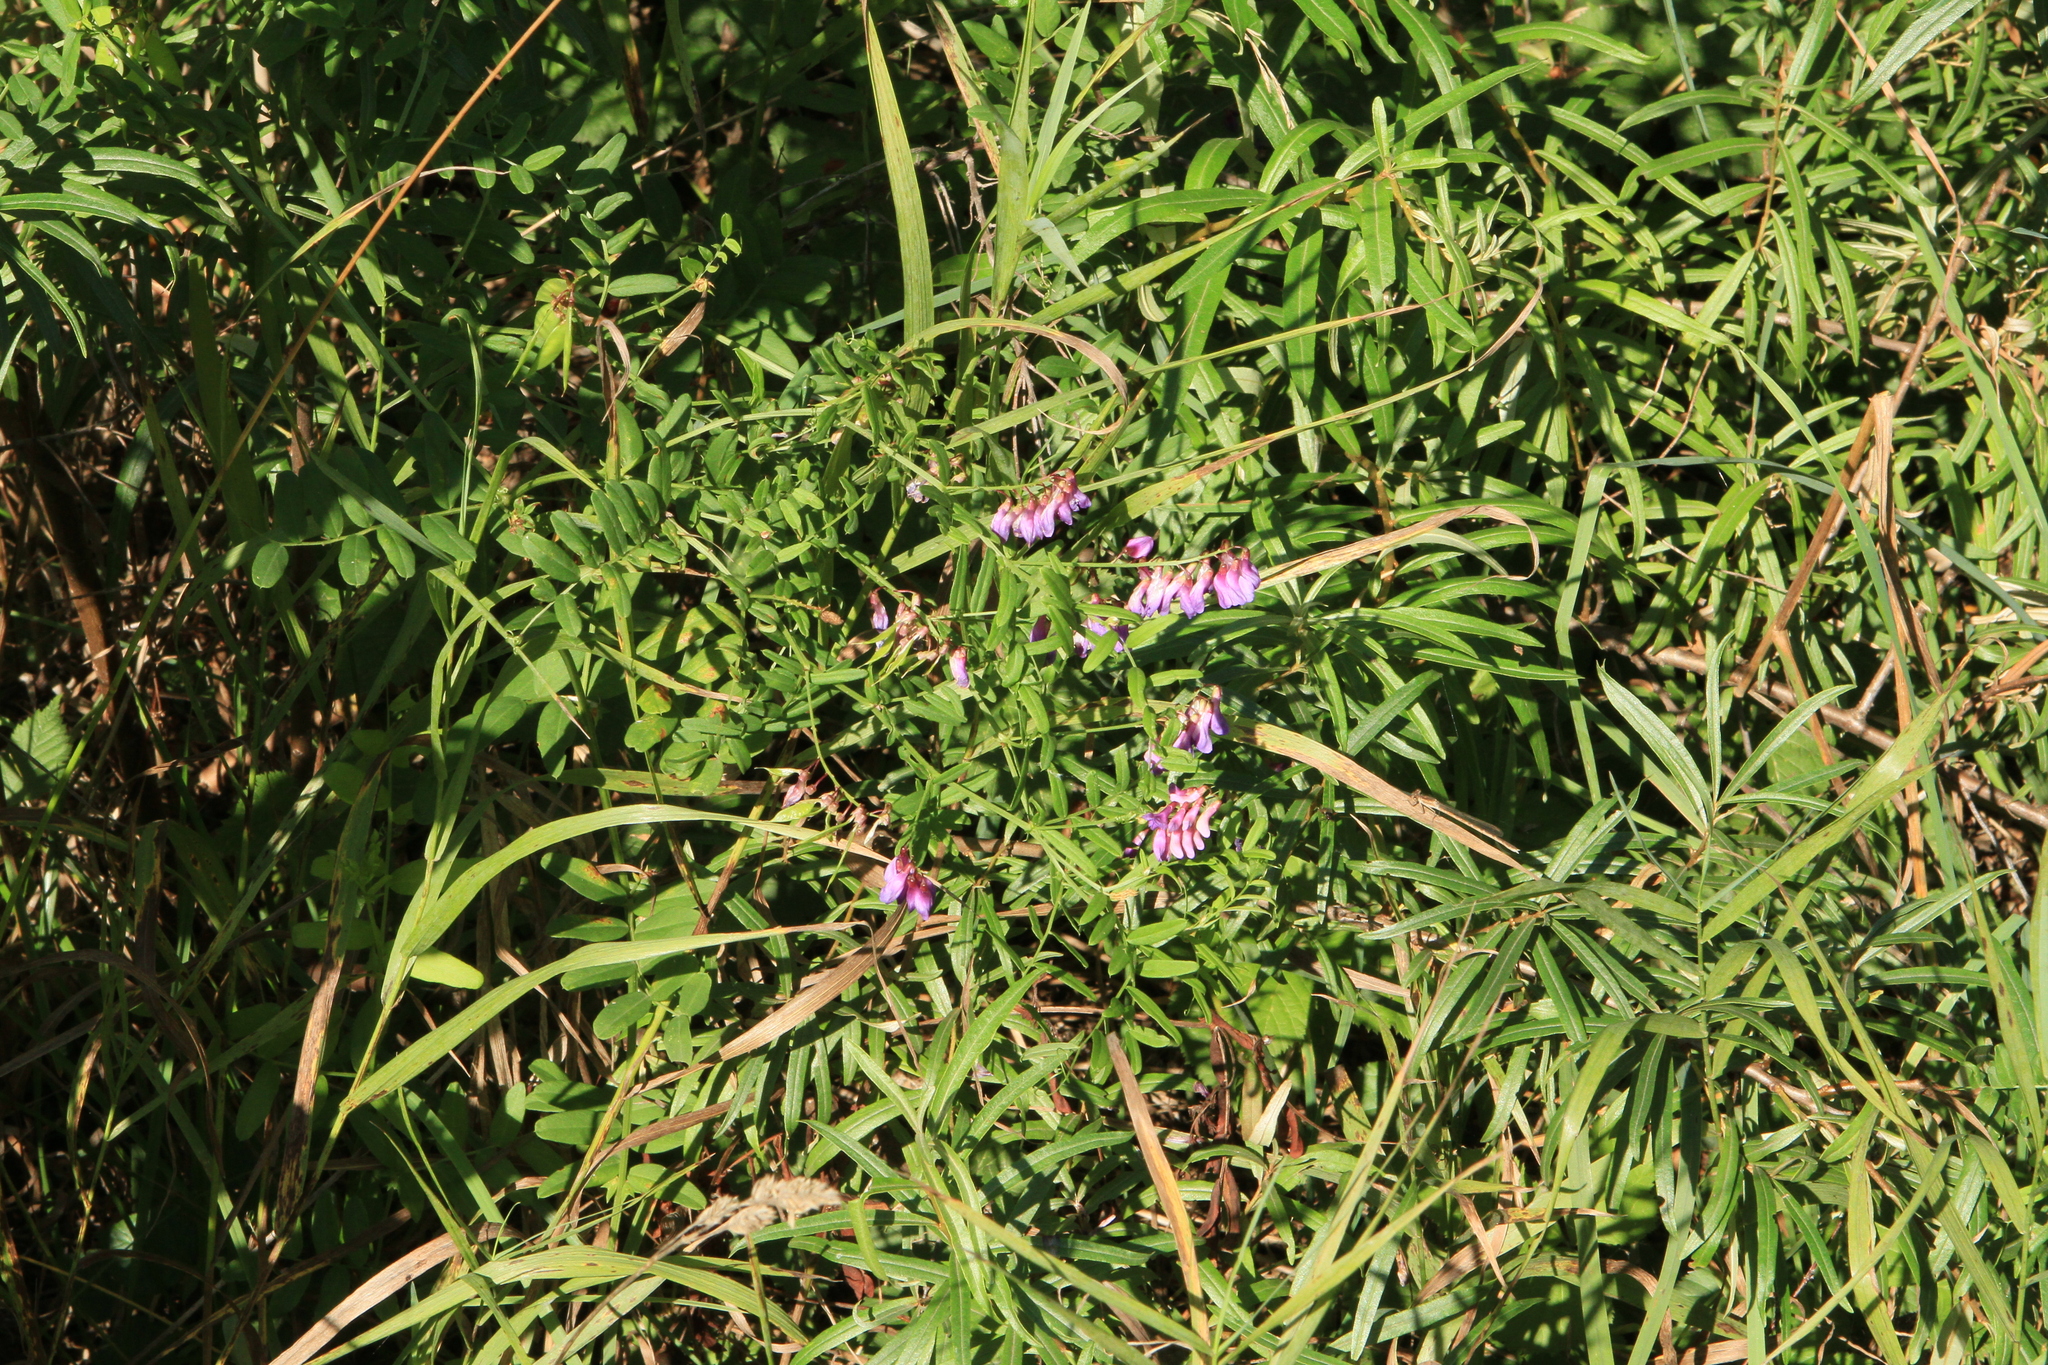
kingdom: Plantae
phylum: Tracheophyta
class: Magnoliopsida
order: Fabales
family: Fabaceae
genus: Vicia
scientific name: Vicia amoena
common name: Cheder ebs
